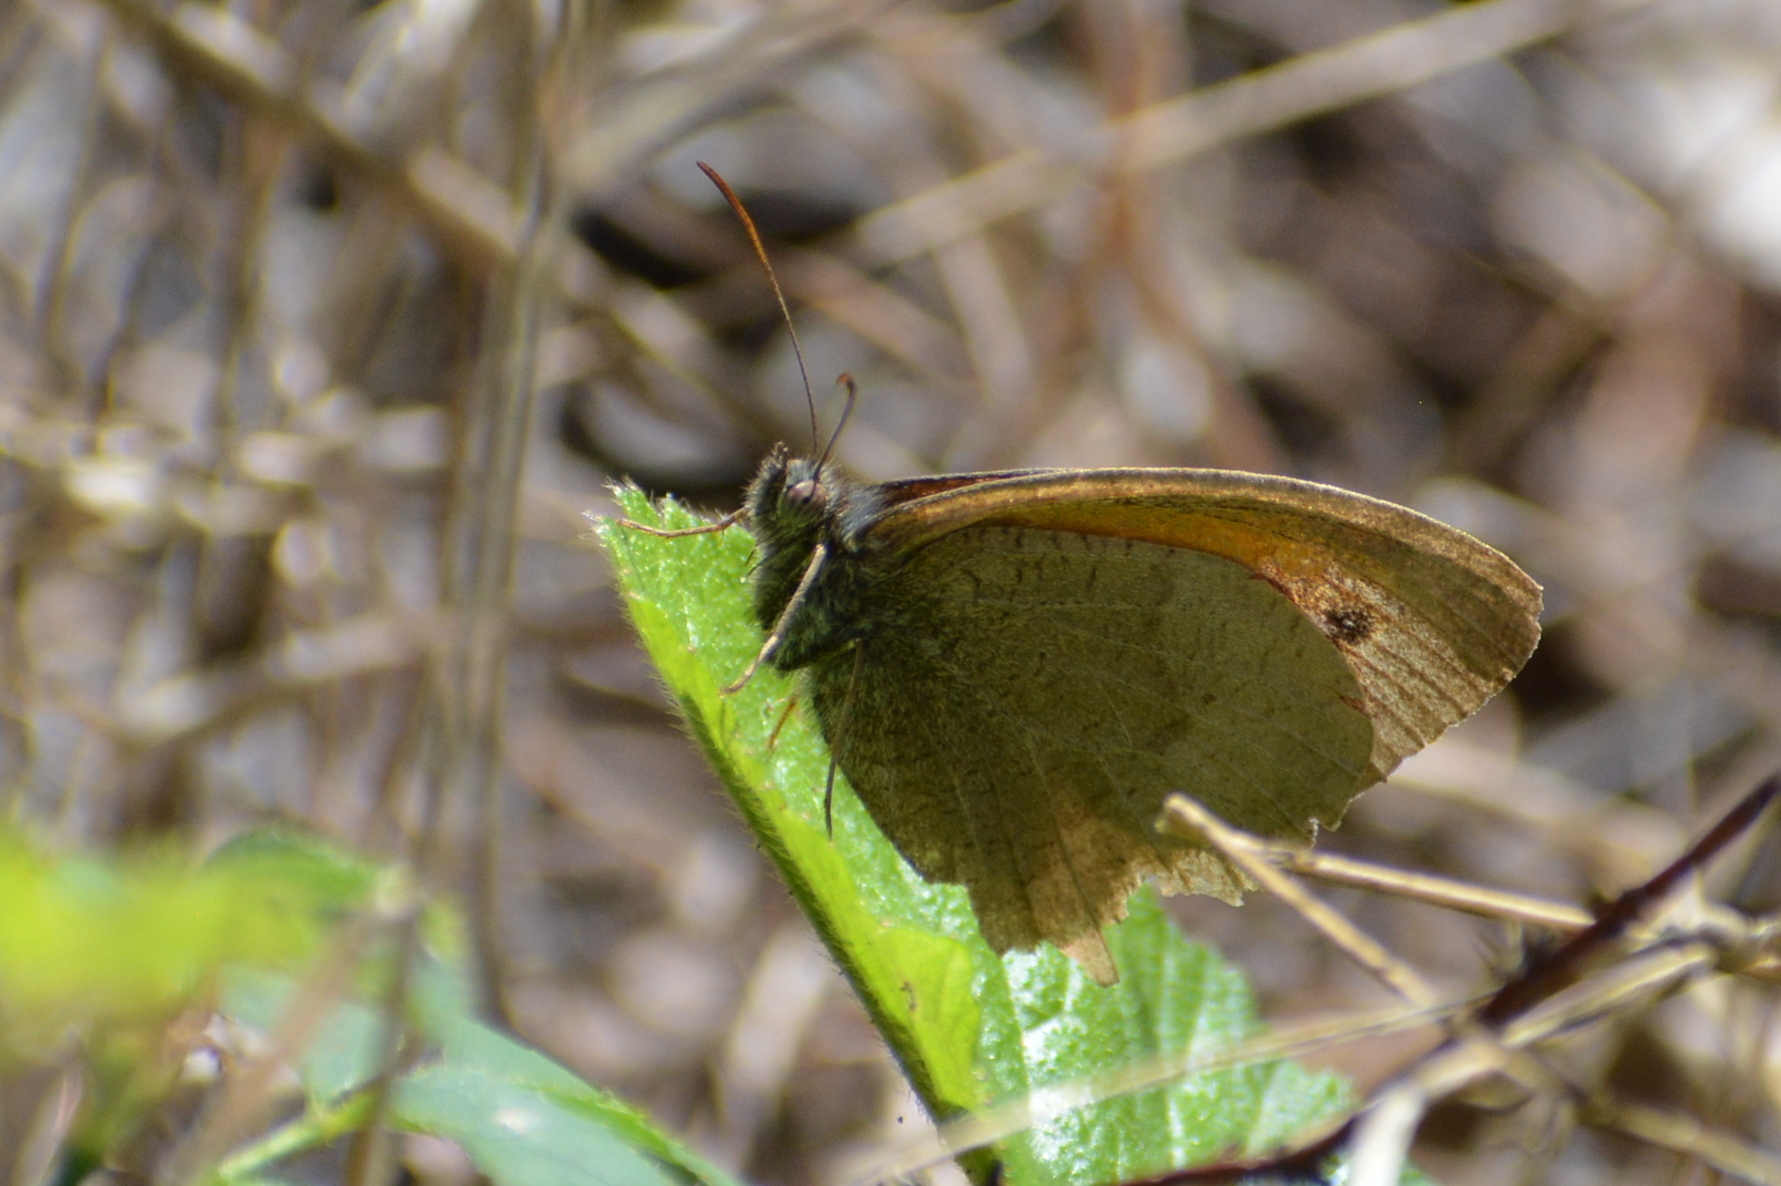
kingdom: Animalia
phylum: Arthropoda
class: Insecta
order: Lepidoptera
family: Nymphalidae
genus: Maniola
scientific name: Maniola jurtina
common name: Meadow brown
